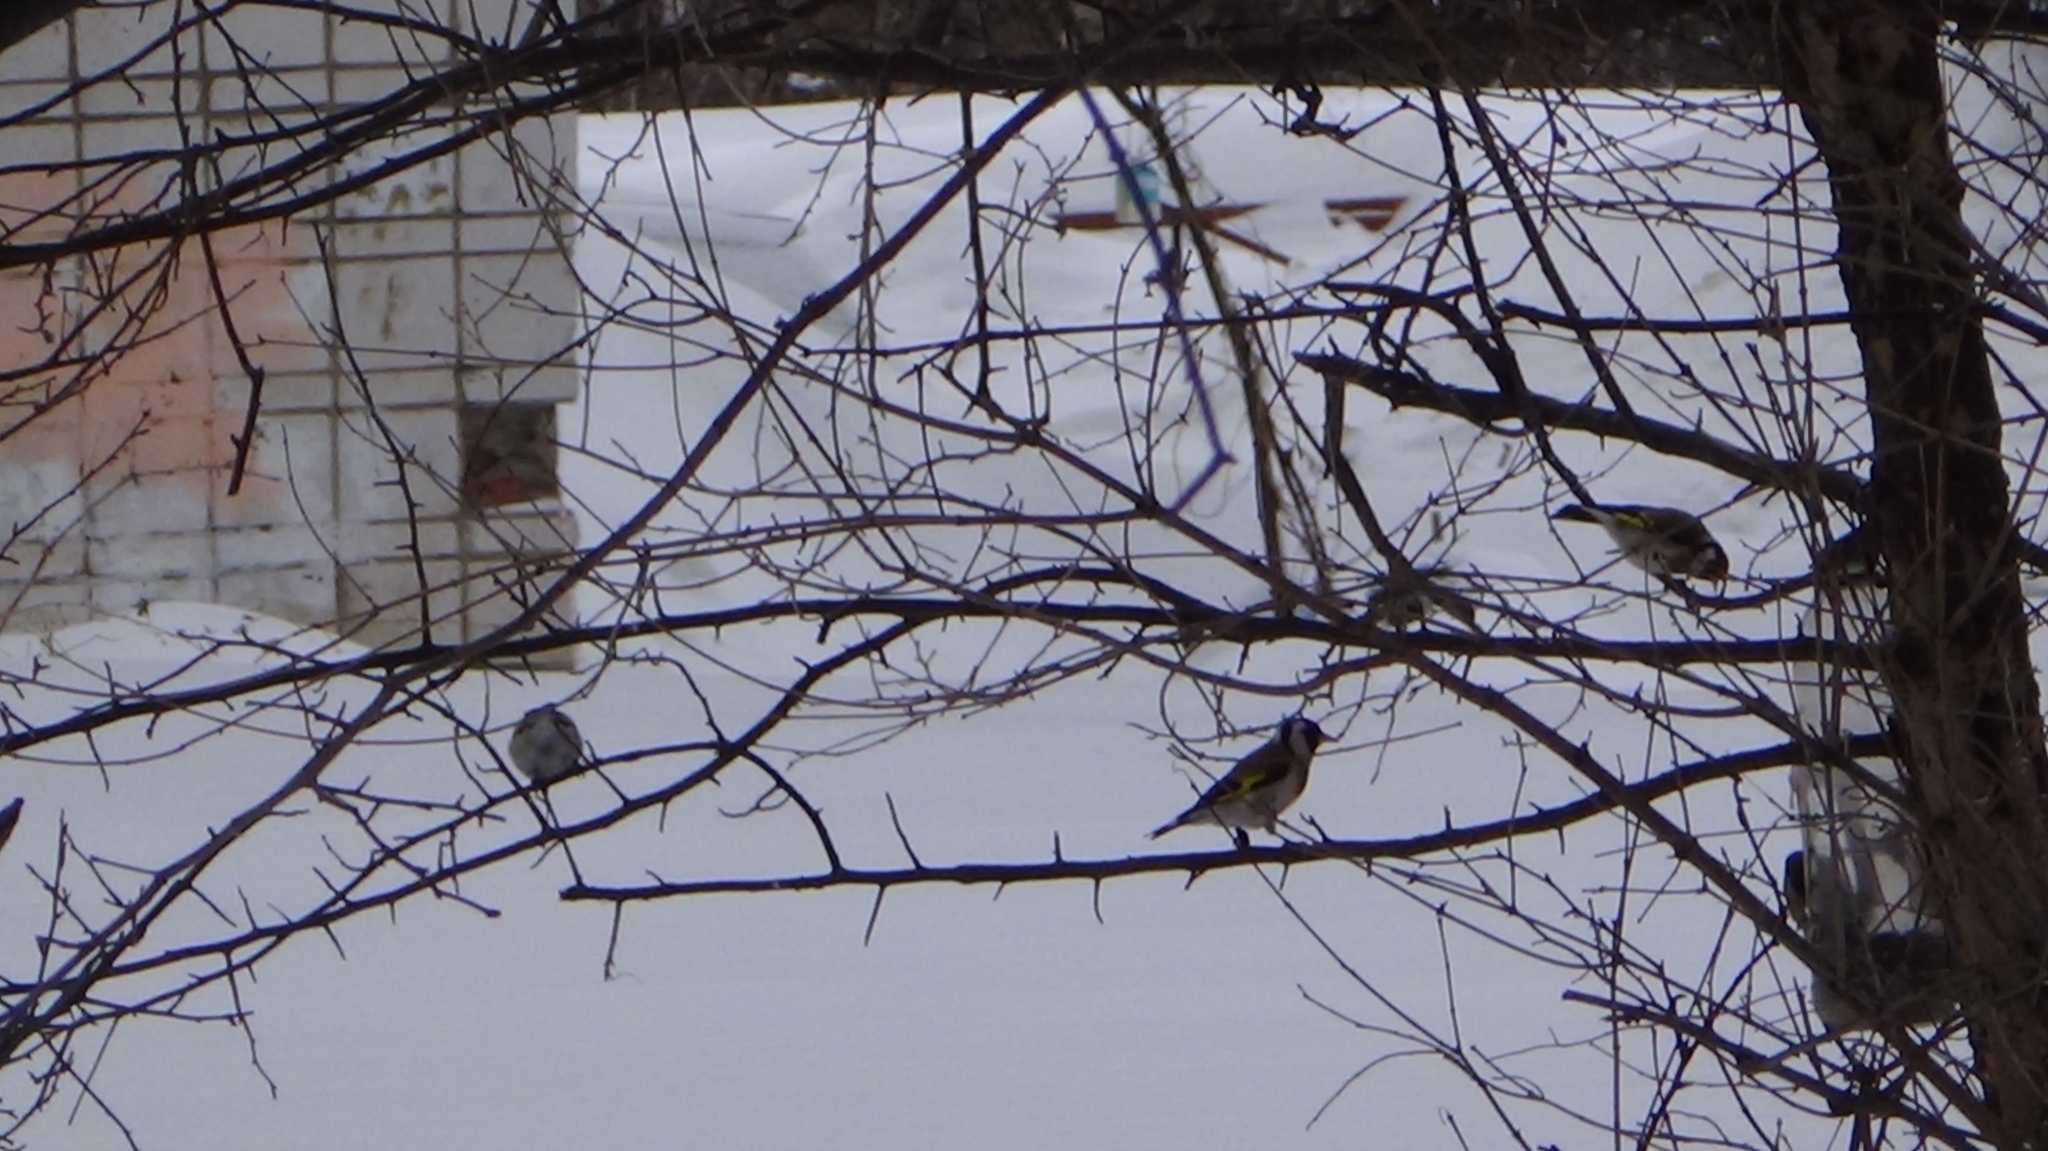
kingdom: Animalia
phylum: Chordata
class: Aves
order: Passeriformes
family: Fringillidae
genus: Carduelis
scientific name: Carduelis carduelis
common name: European goldfinch
